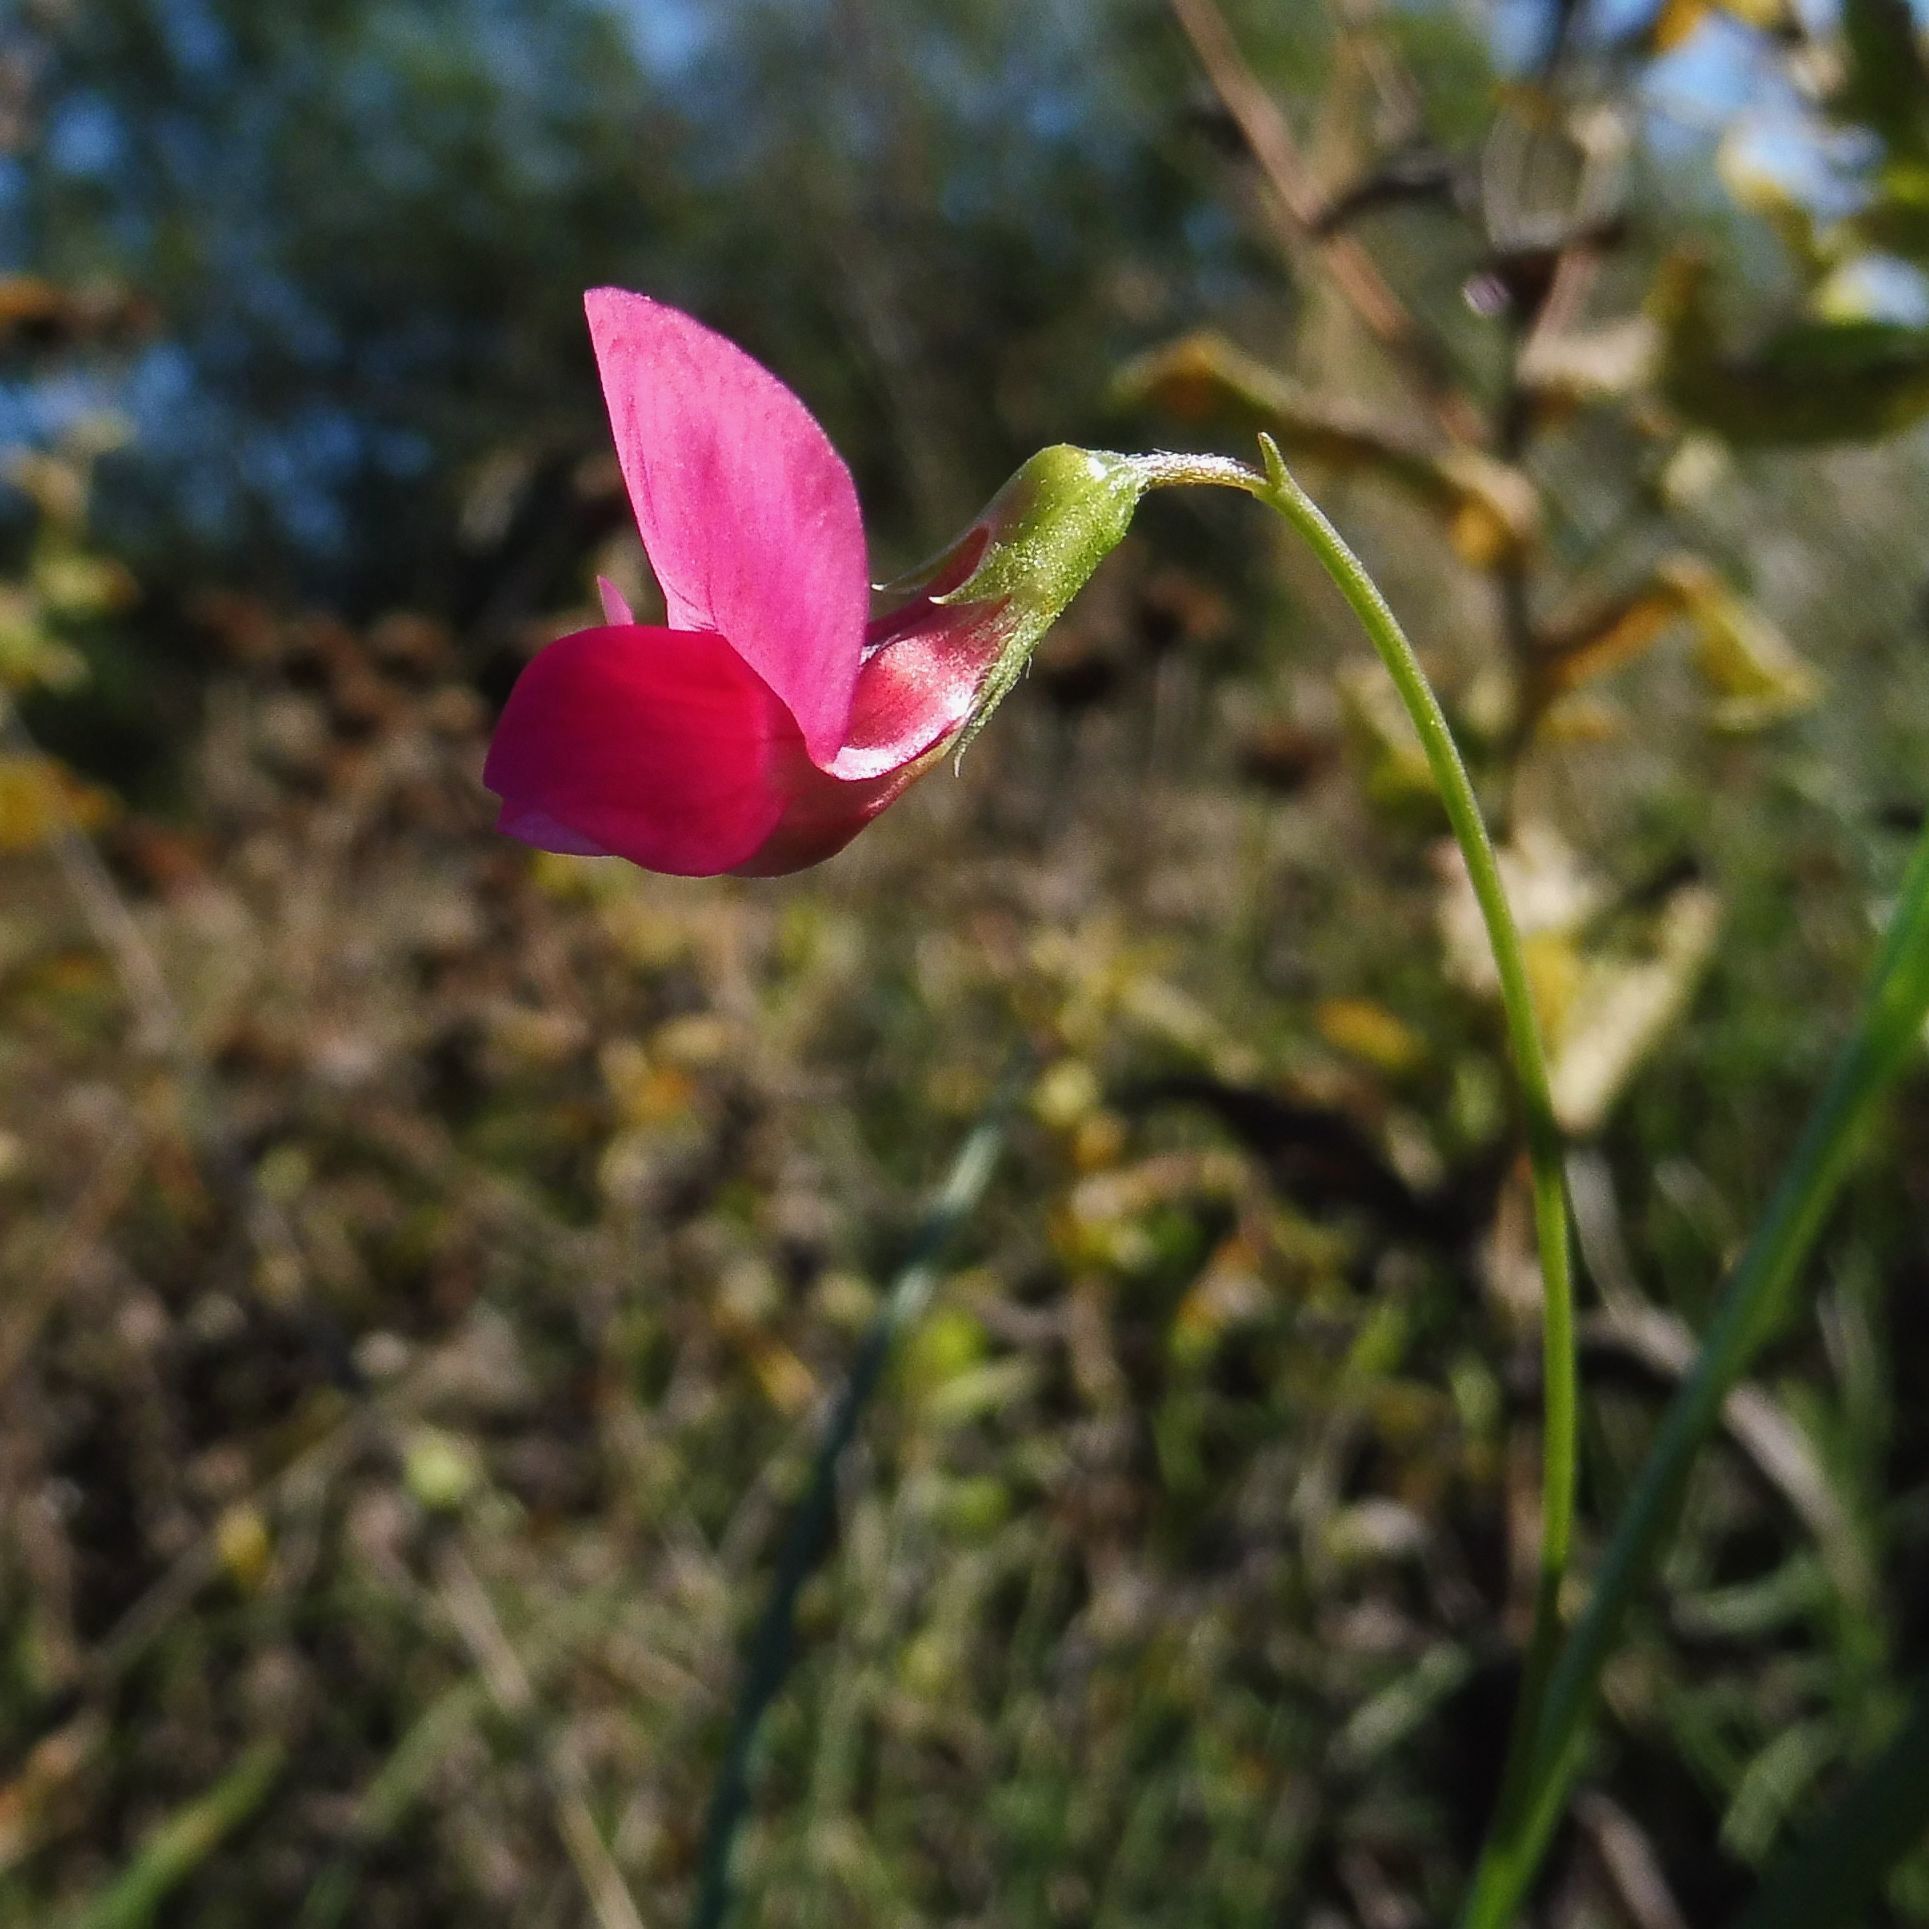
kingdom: Plantae
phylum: Tracheophyta
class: Magnoliopsida
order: Fabales
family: Fabaceae
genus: Lathyrus
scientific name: Lathyrus nissolia
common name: Grass vetchling
